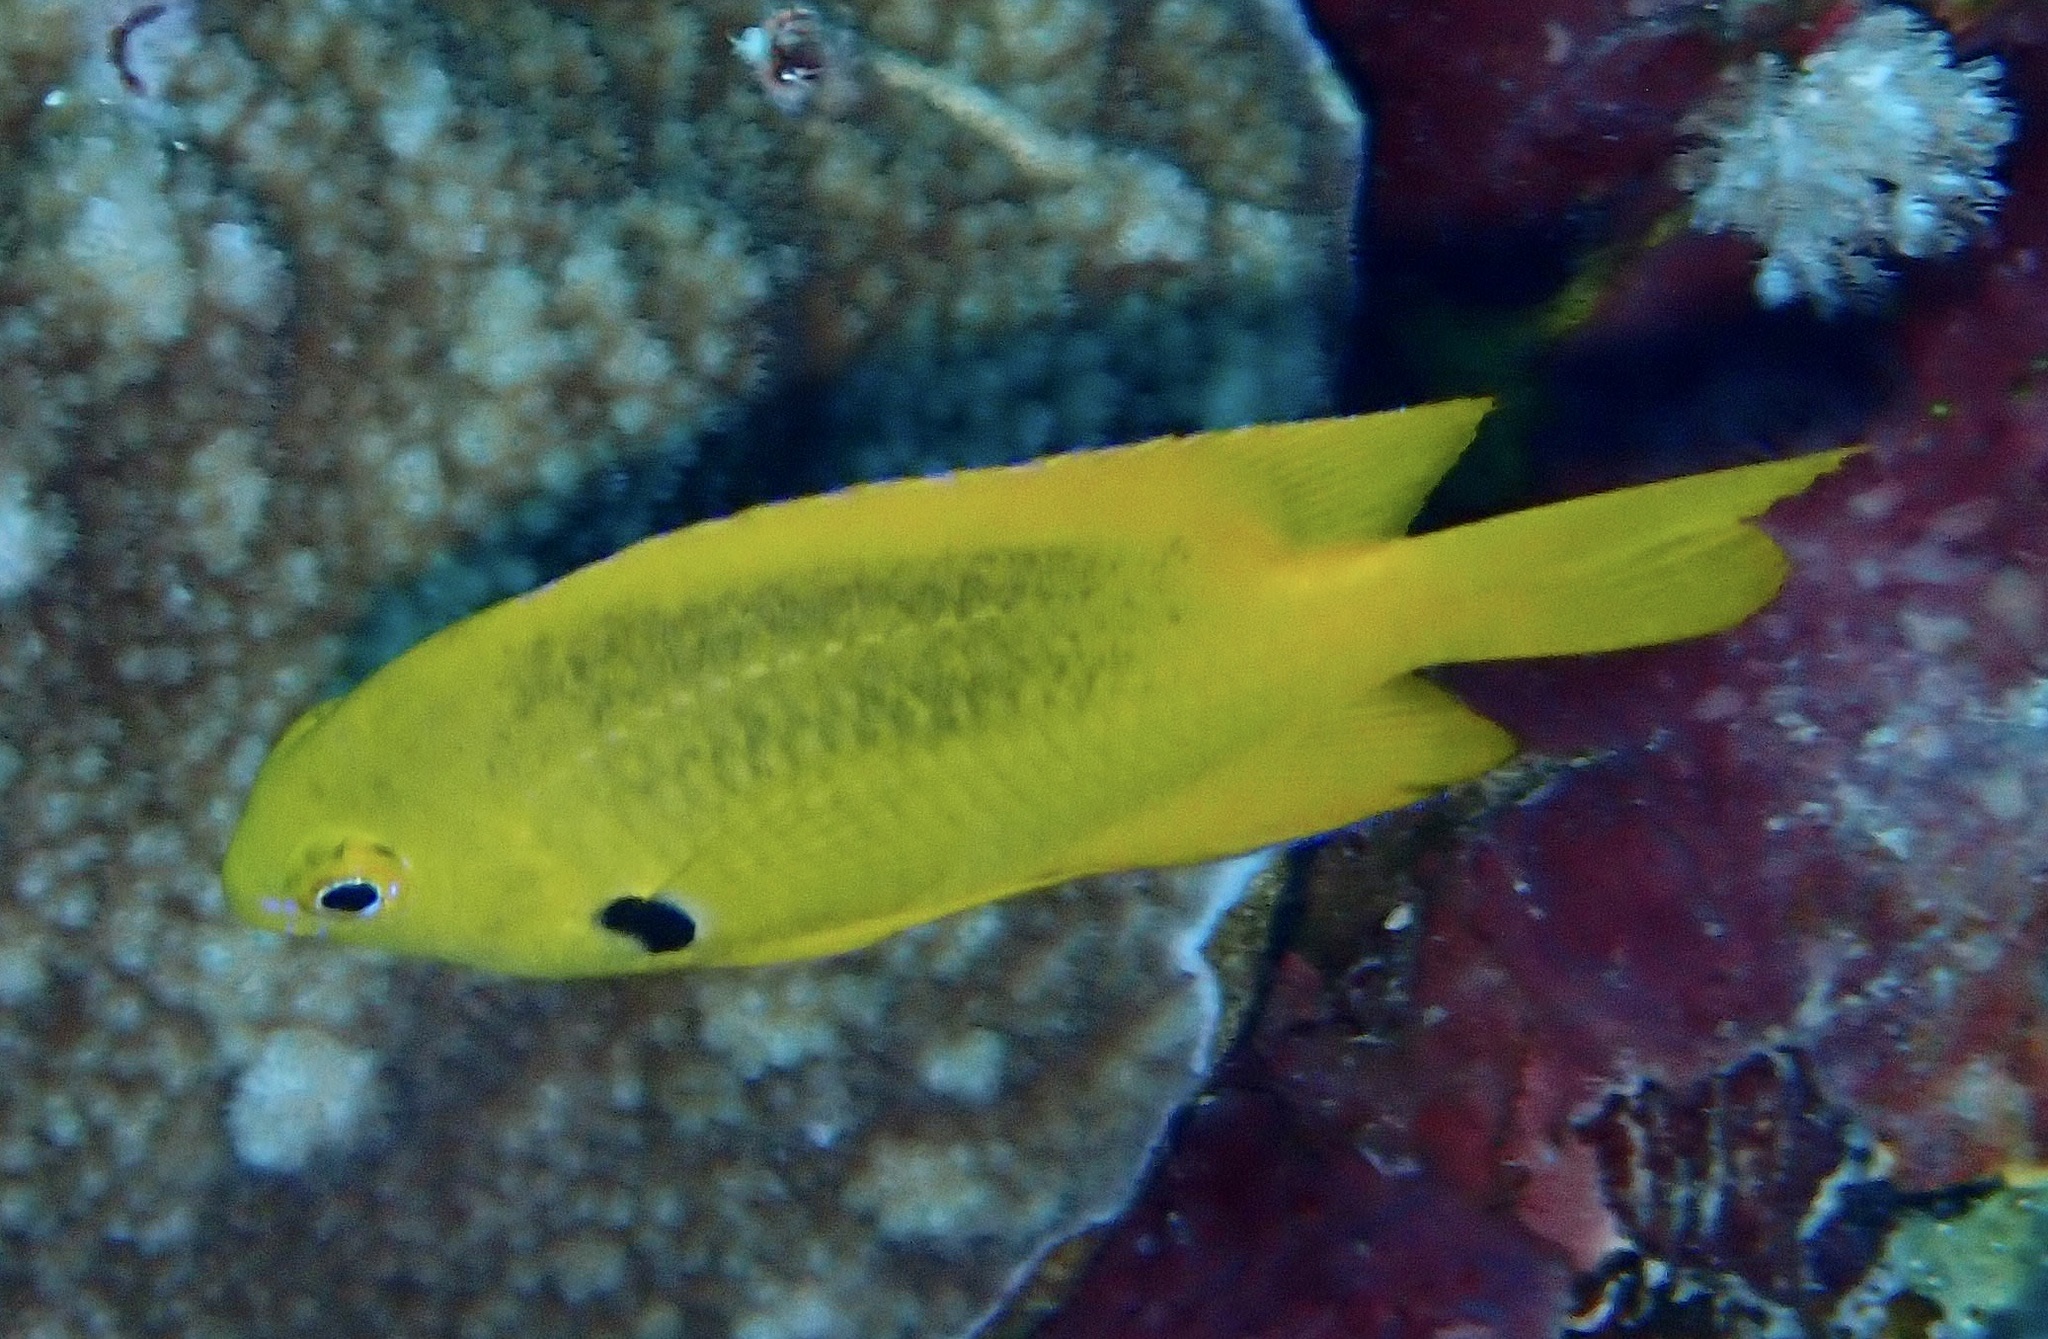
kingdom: Animalia
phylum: Chordata
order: Perciformes
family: Pomacentridae
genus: Pomacentrus
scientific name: Pomacentrus sulfureus
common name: Sulfur damsel
